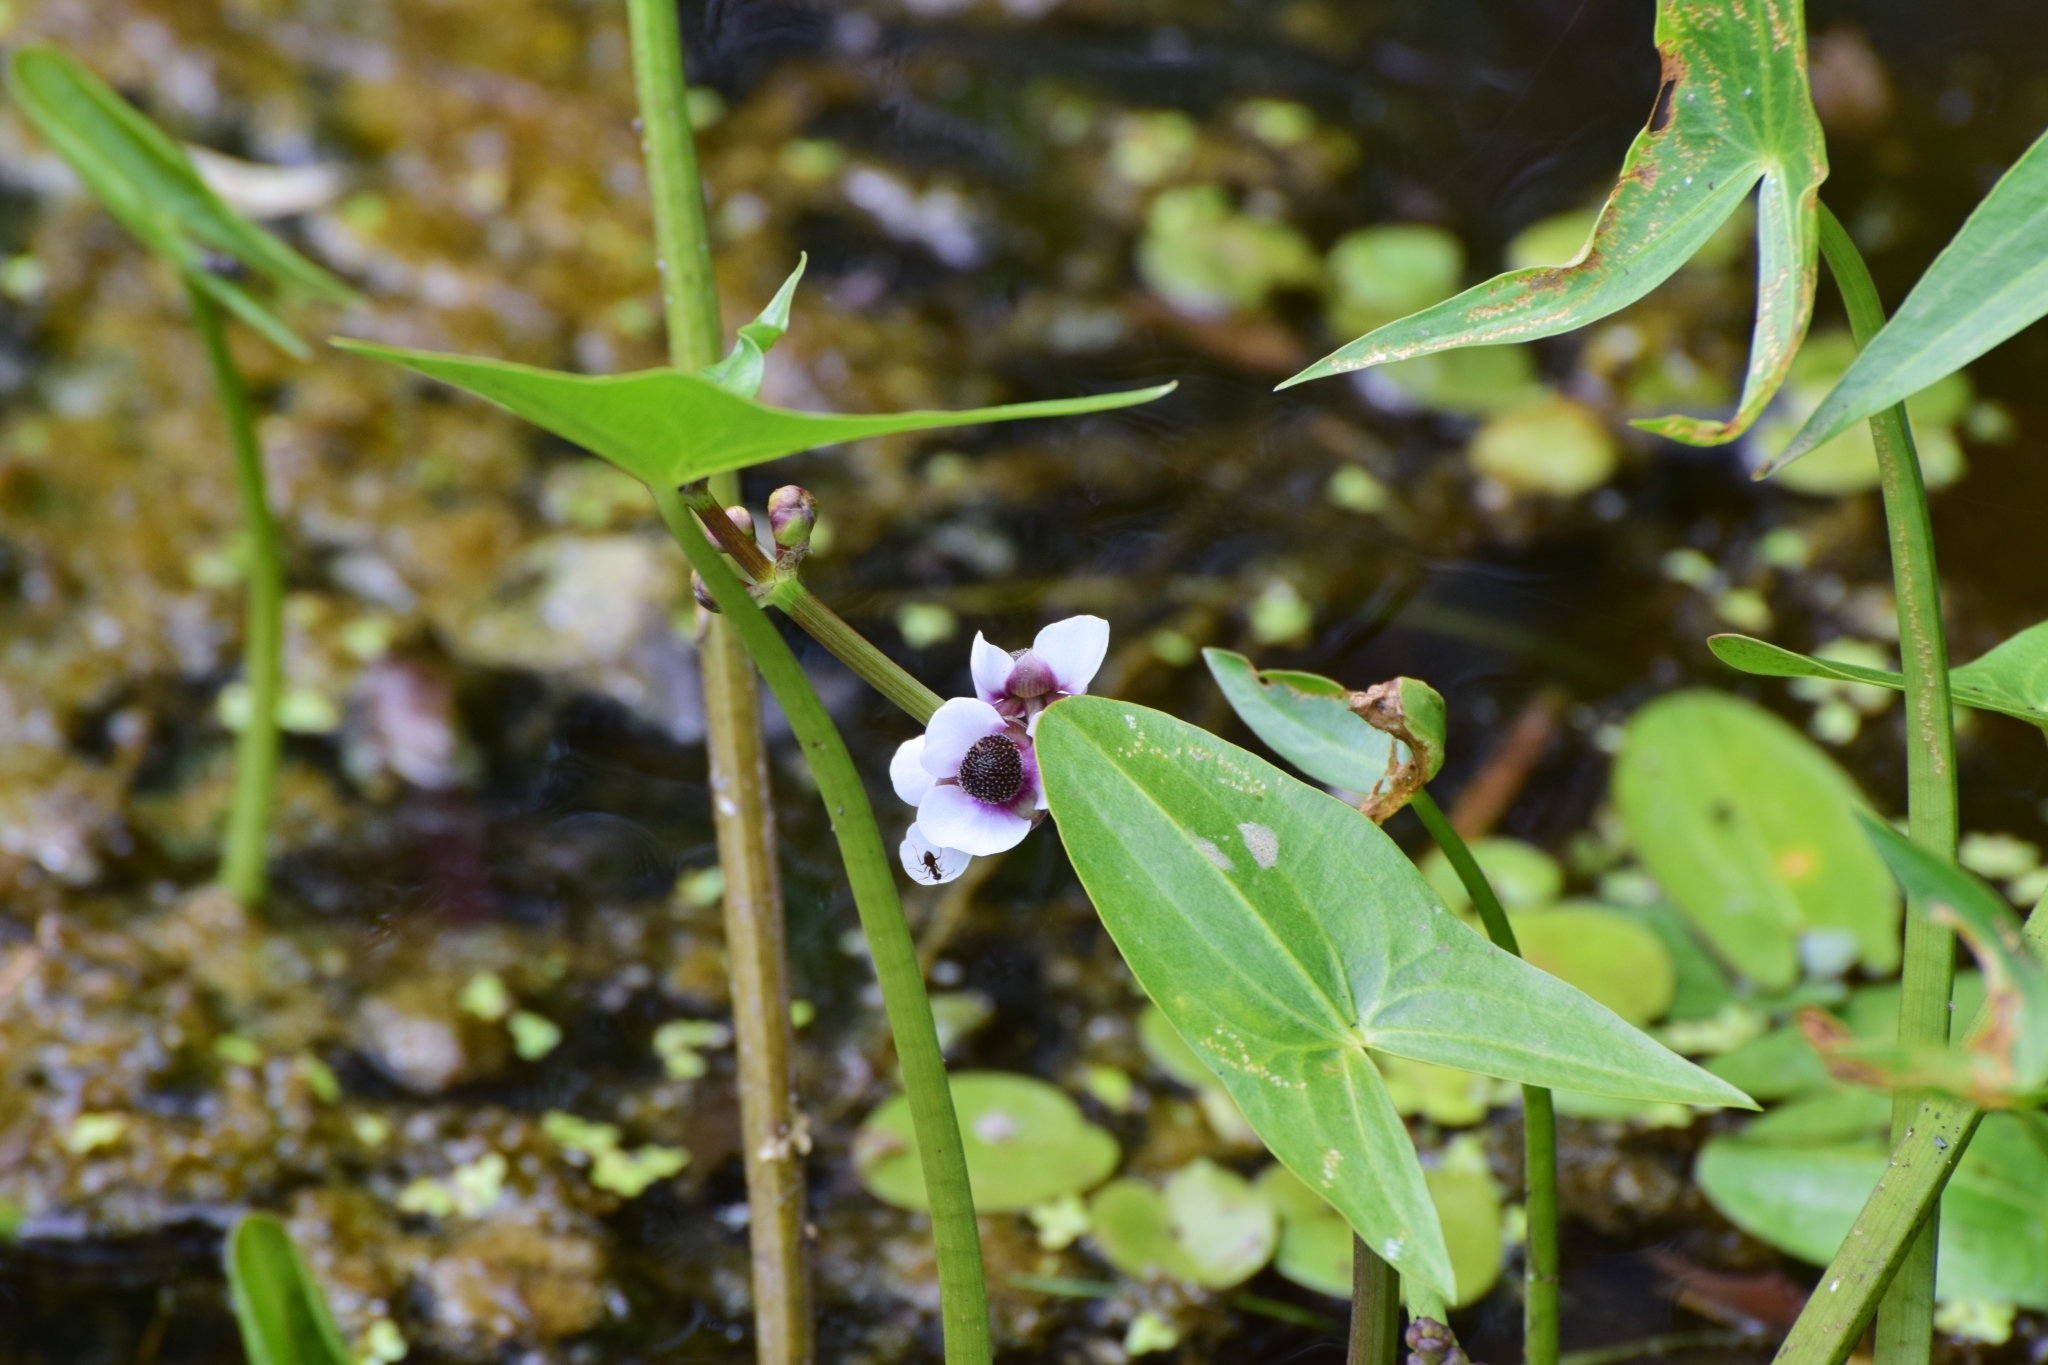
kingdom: Plantae
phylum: Tracheophyta
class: Liliopsida
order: Alismatales
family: Alismataceae
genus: Sagittaria
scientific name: Sagittaria sagittifolia
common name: Arrowhead
